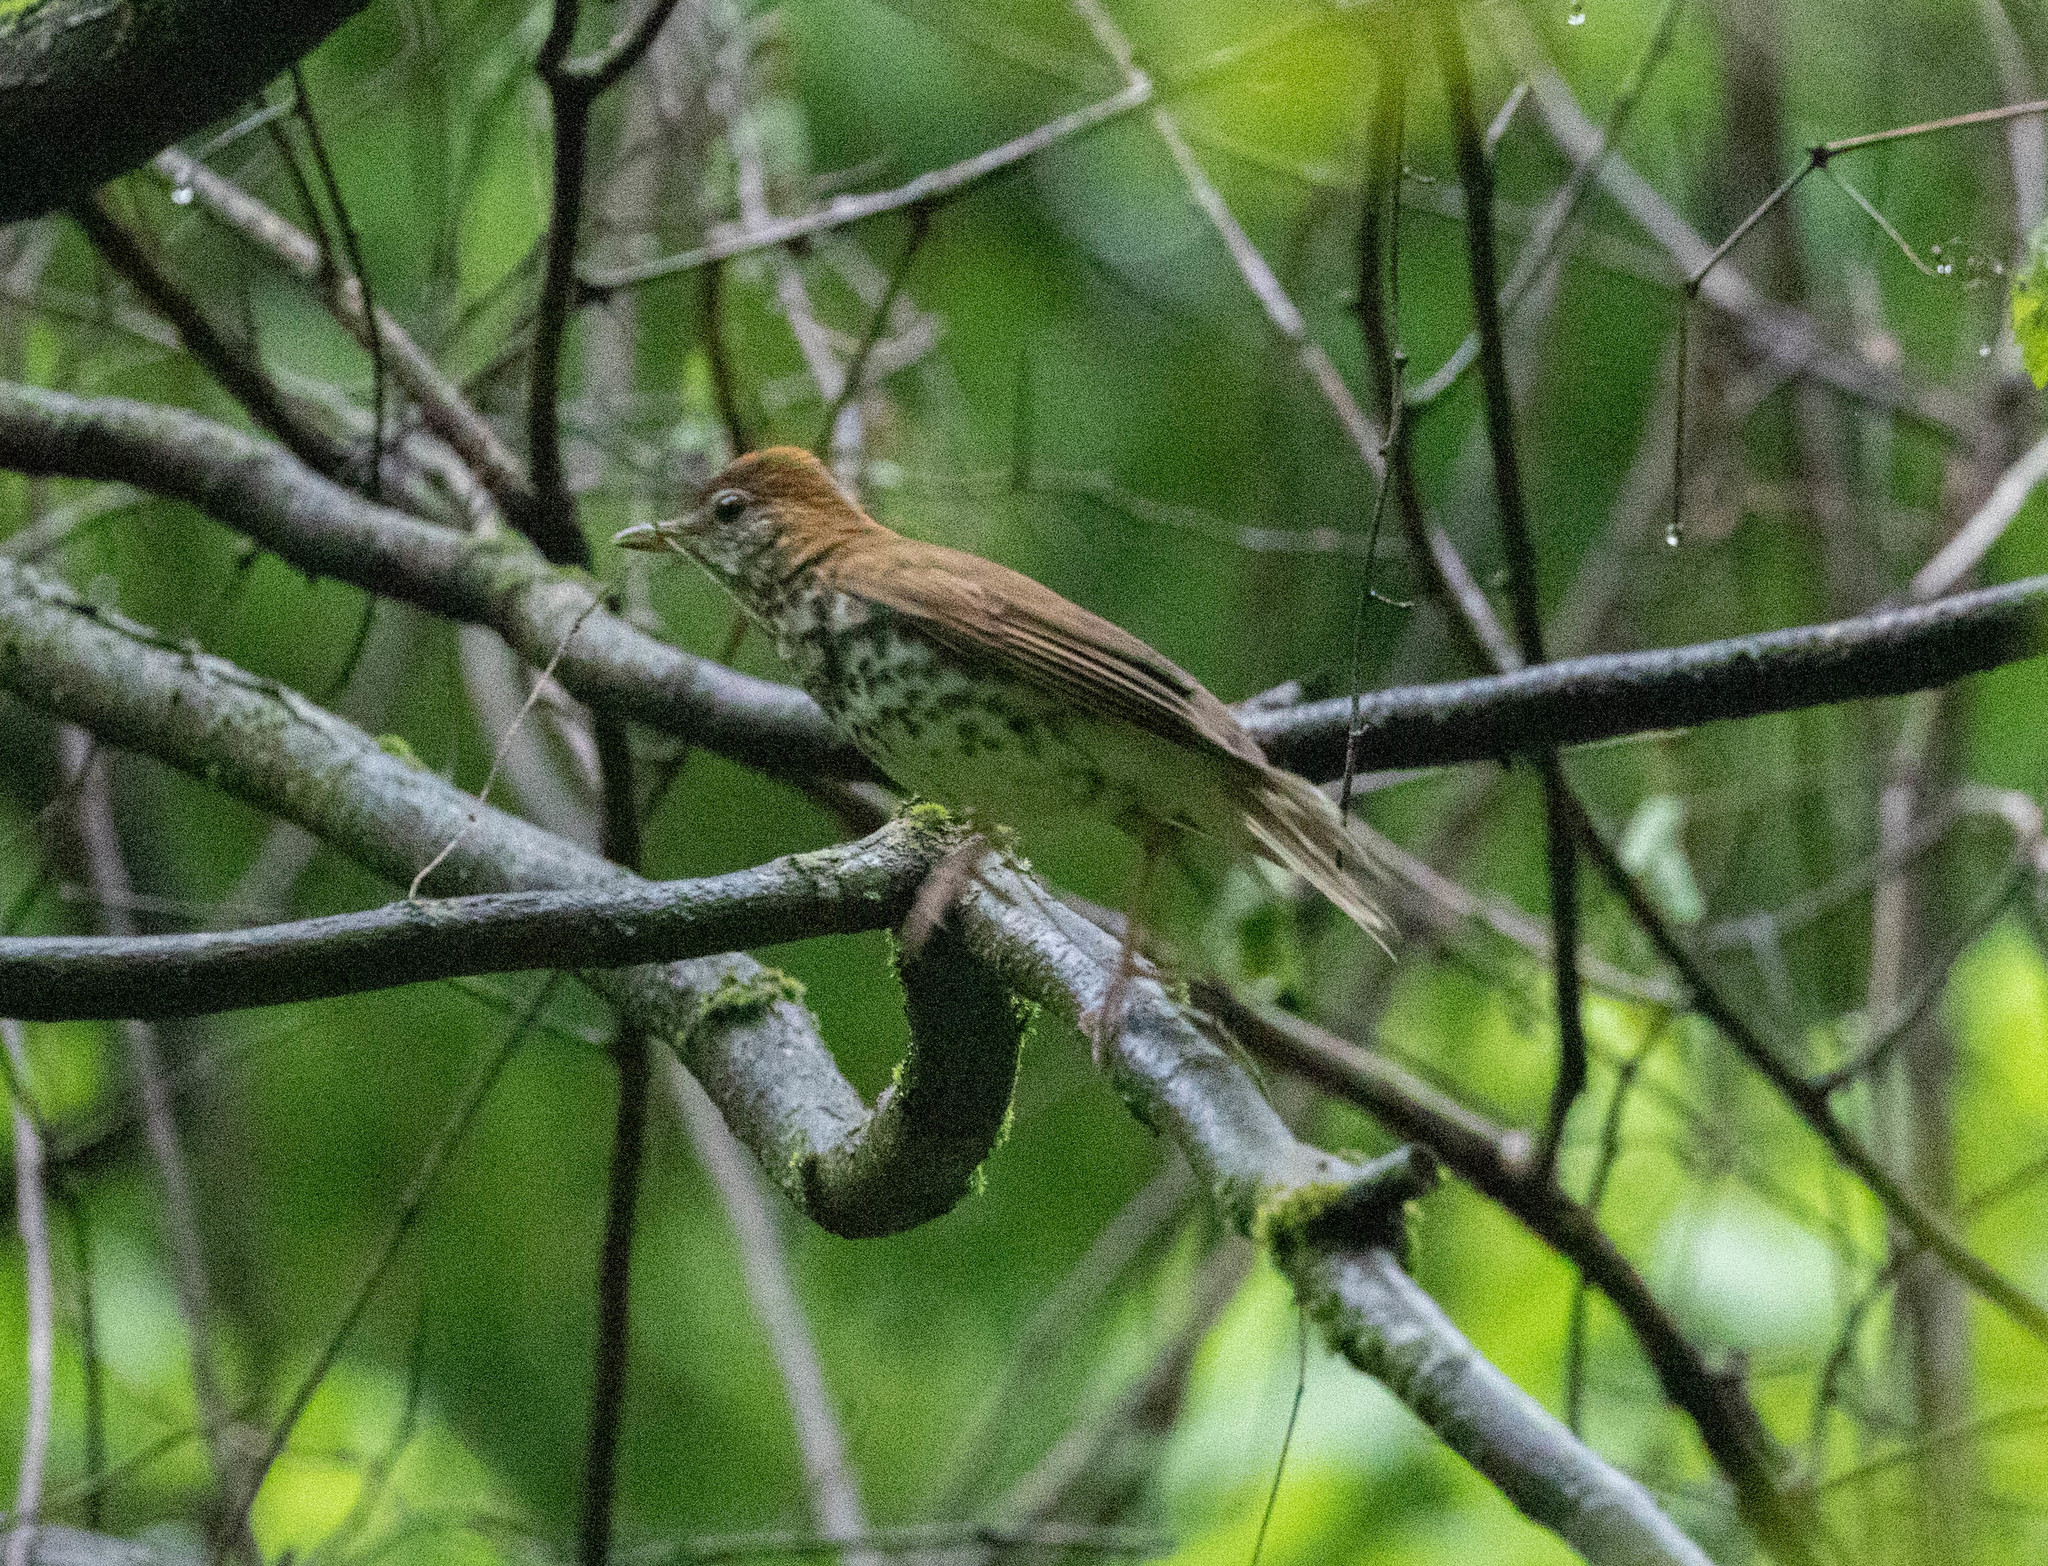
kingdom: Animalia
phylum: Chordata
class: Aves
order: Passeriformes
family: Turdidae
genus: Hylocichla
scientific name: Hylocichla mustelina
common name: Wood thrush
